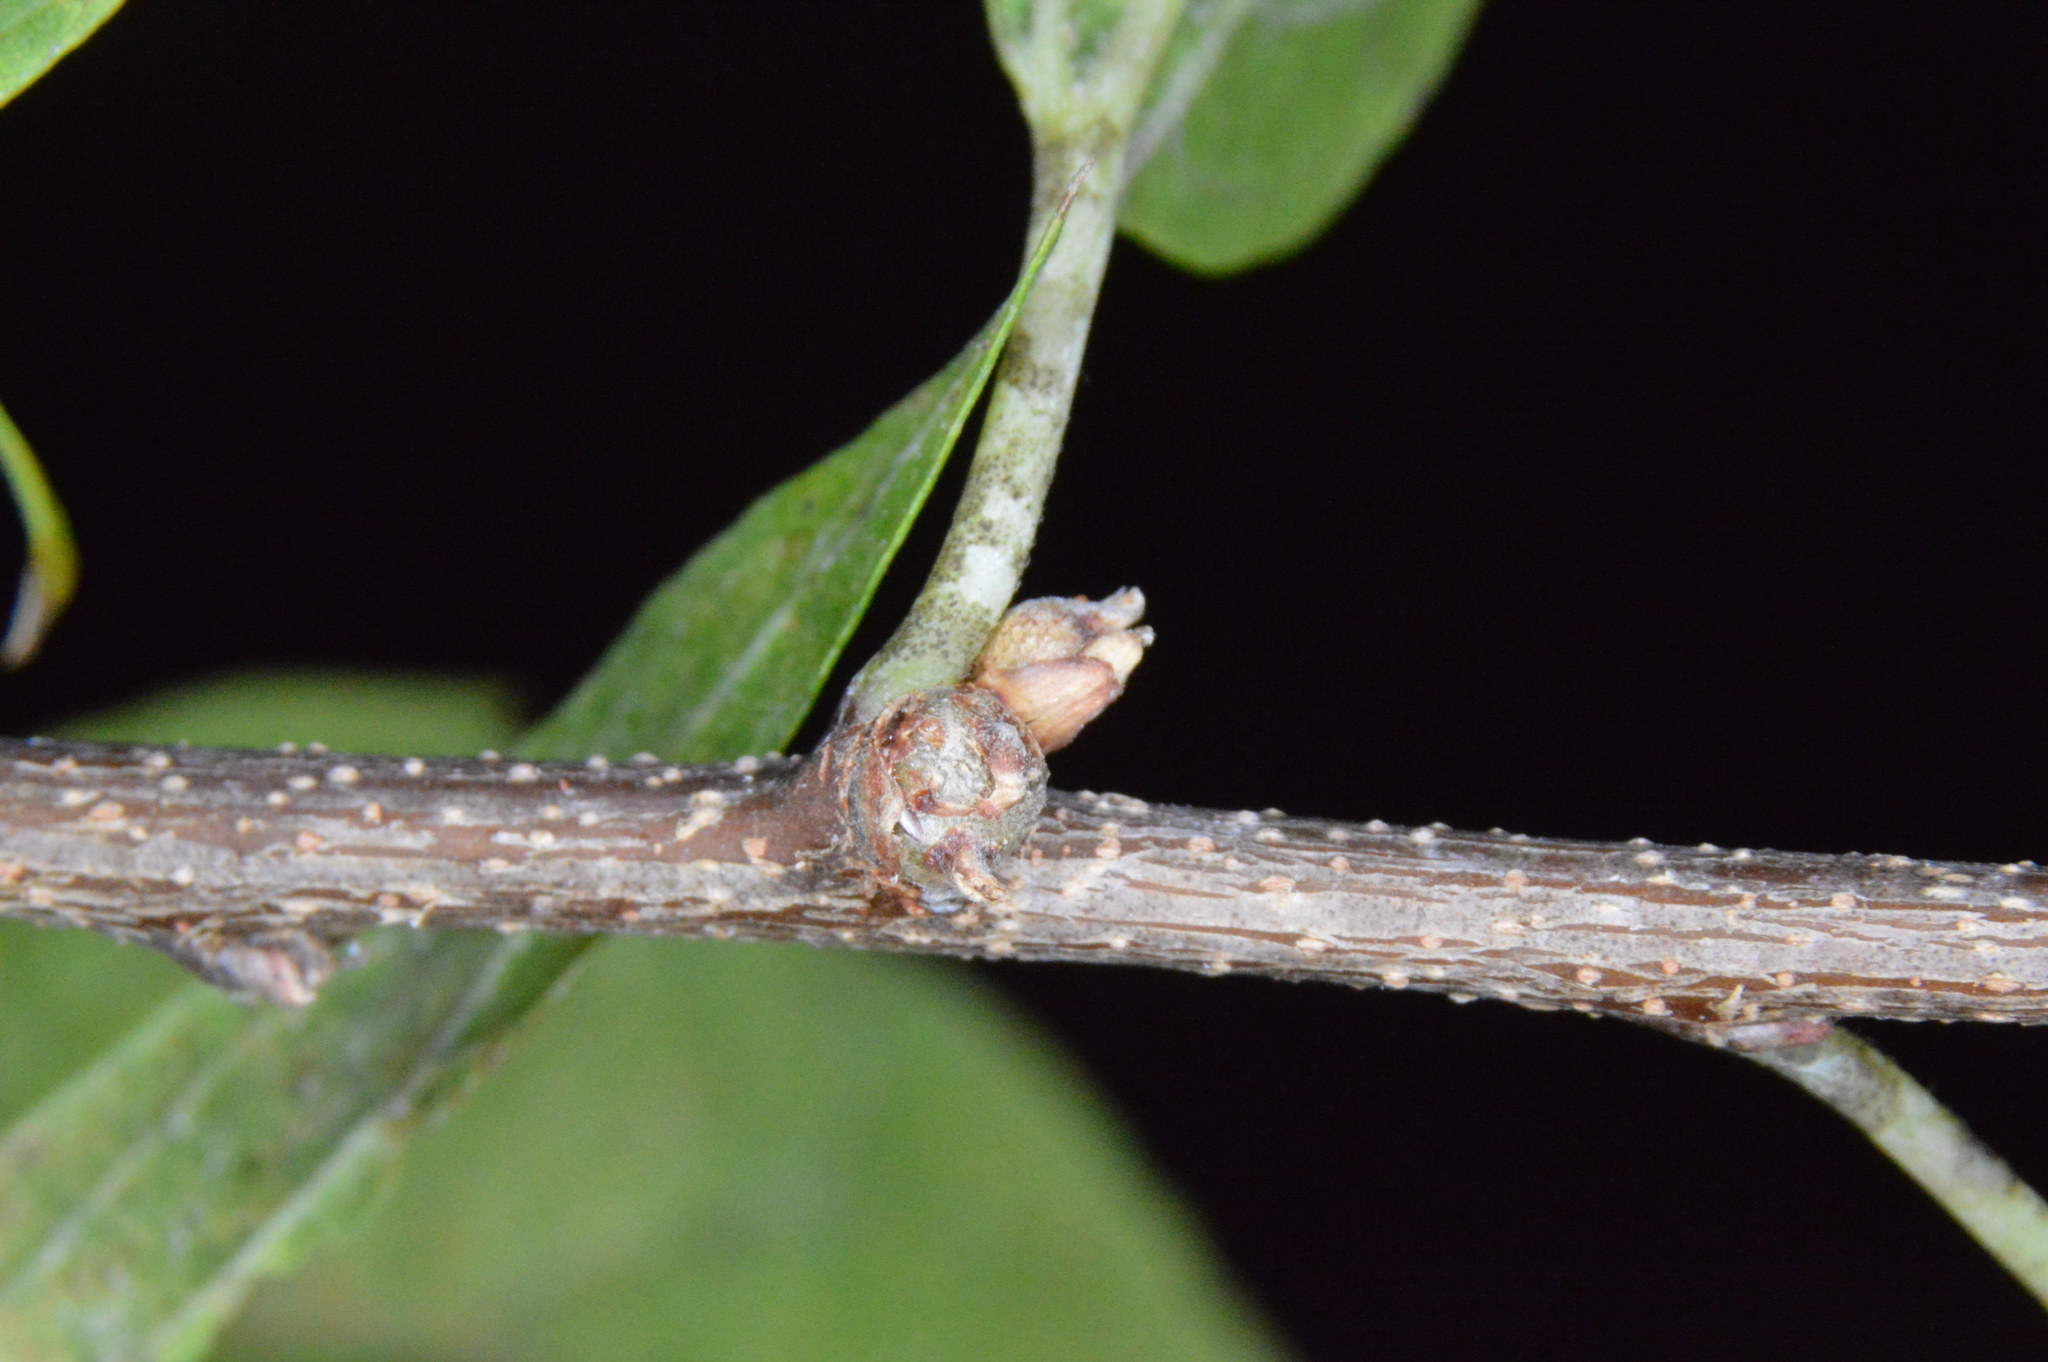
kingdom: Animalia
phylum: Arthropoda
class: Insecta
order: Hemiptera
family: Aphalaridae
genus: Pachypsylla
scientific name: Pachypsylla celtidisgemma
